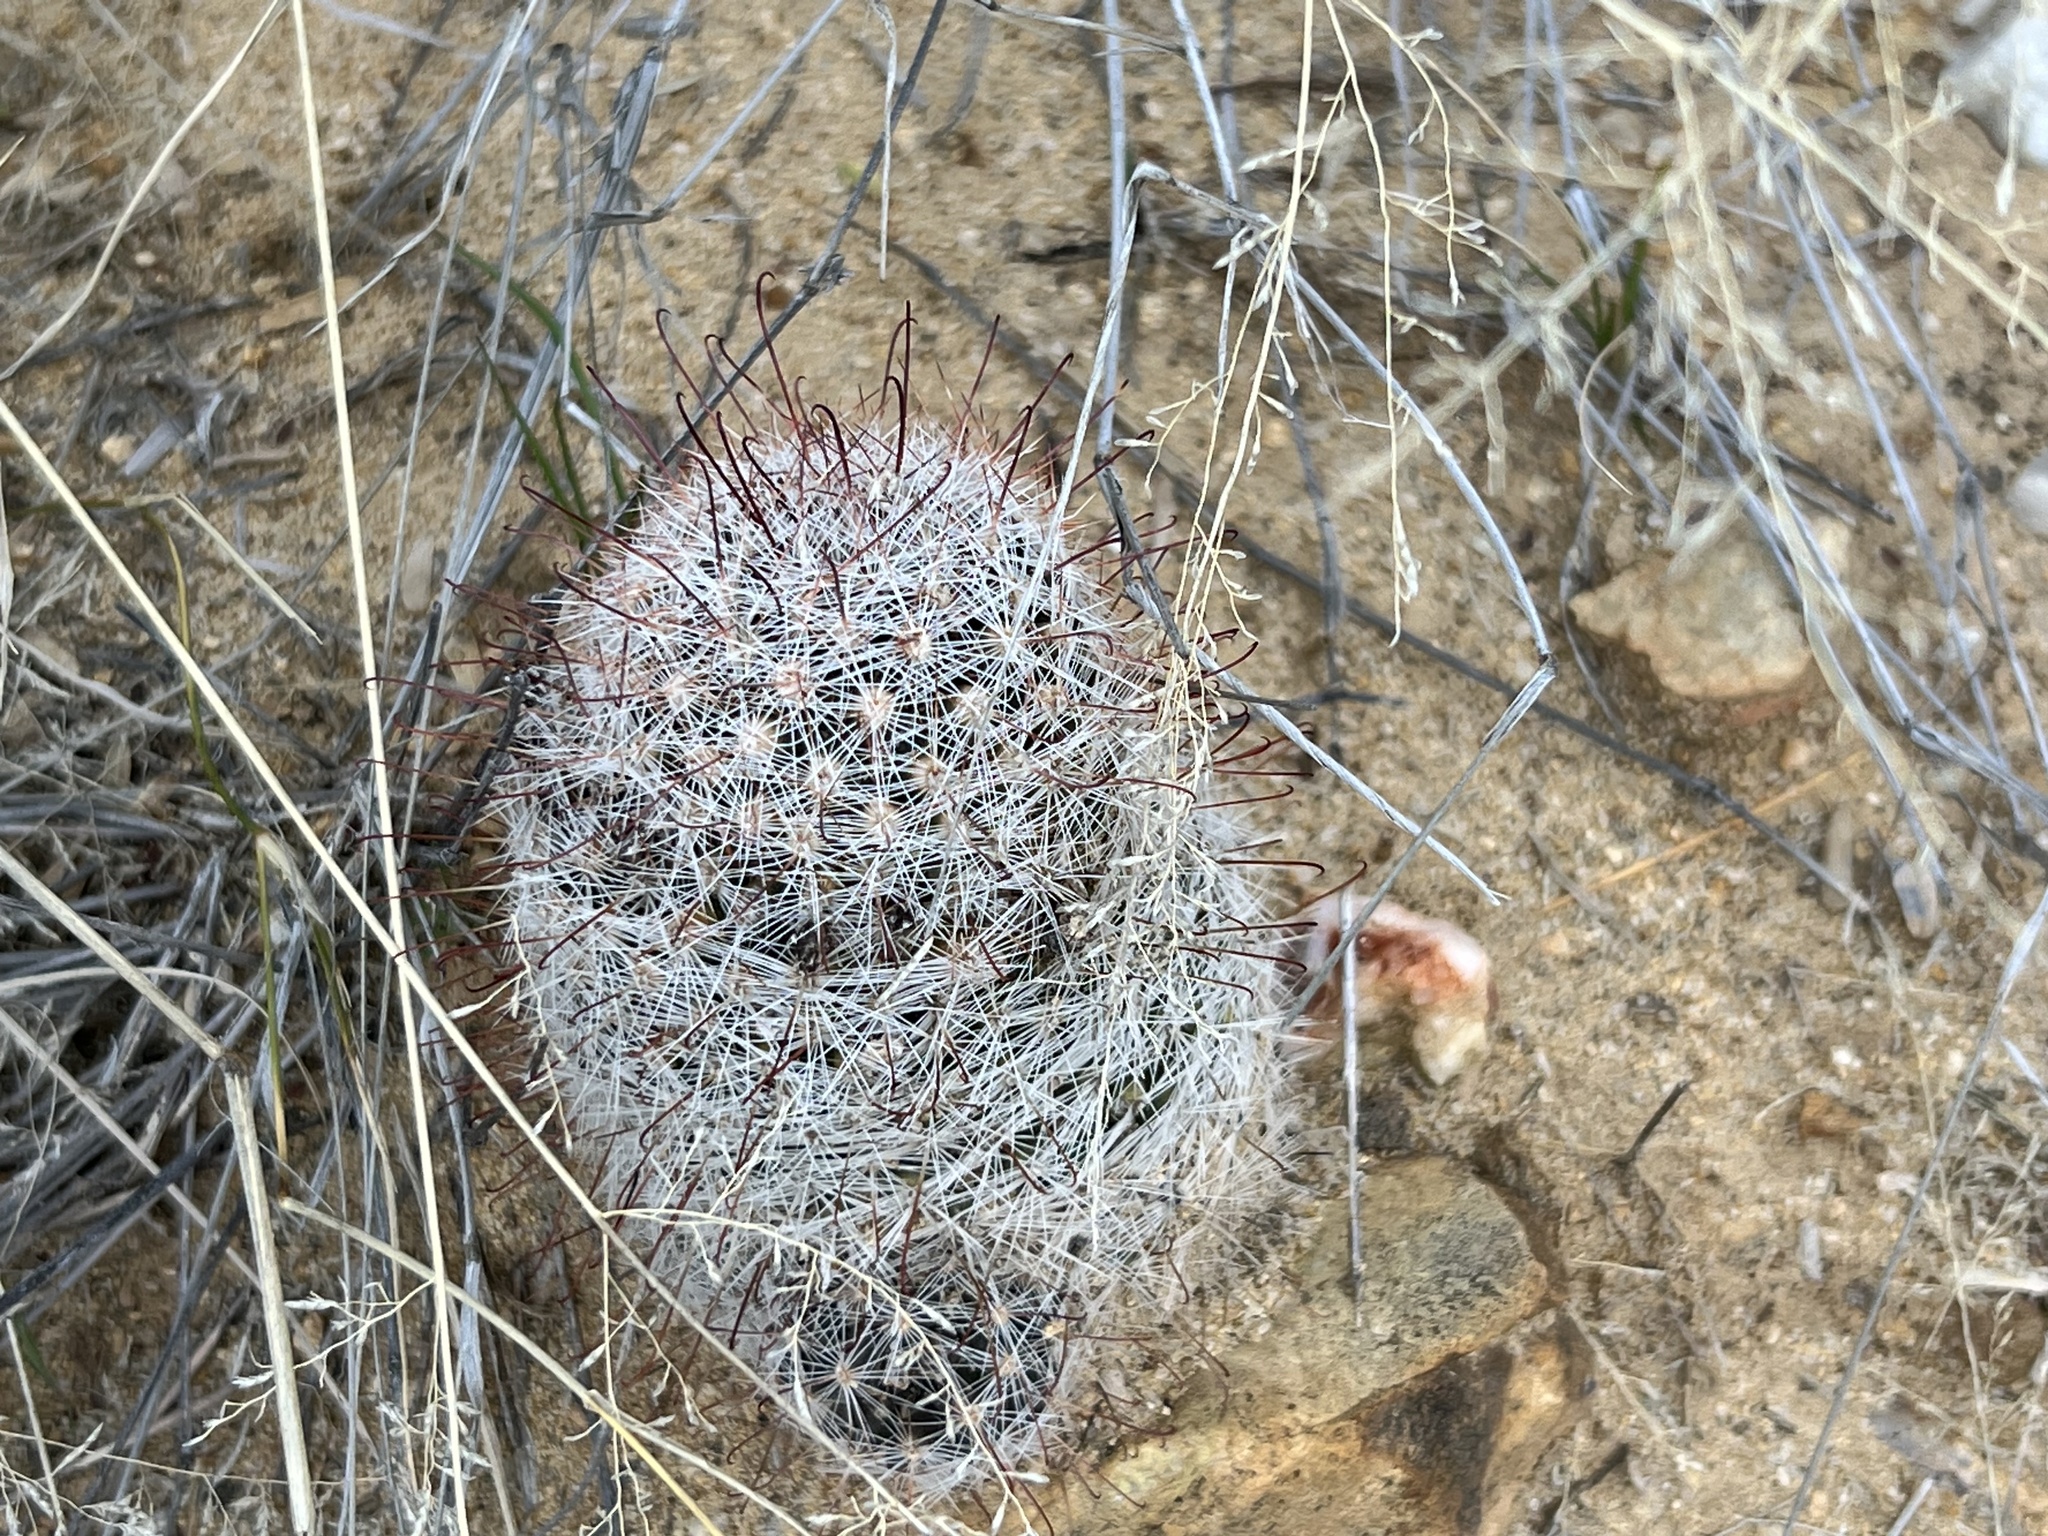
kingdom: Plantae
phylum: Tracheophyta
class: Magnoliopsida
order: Caryophyllales
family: Cactaceae
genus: Cochemiea
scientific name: Cochemiea grahamii
